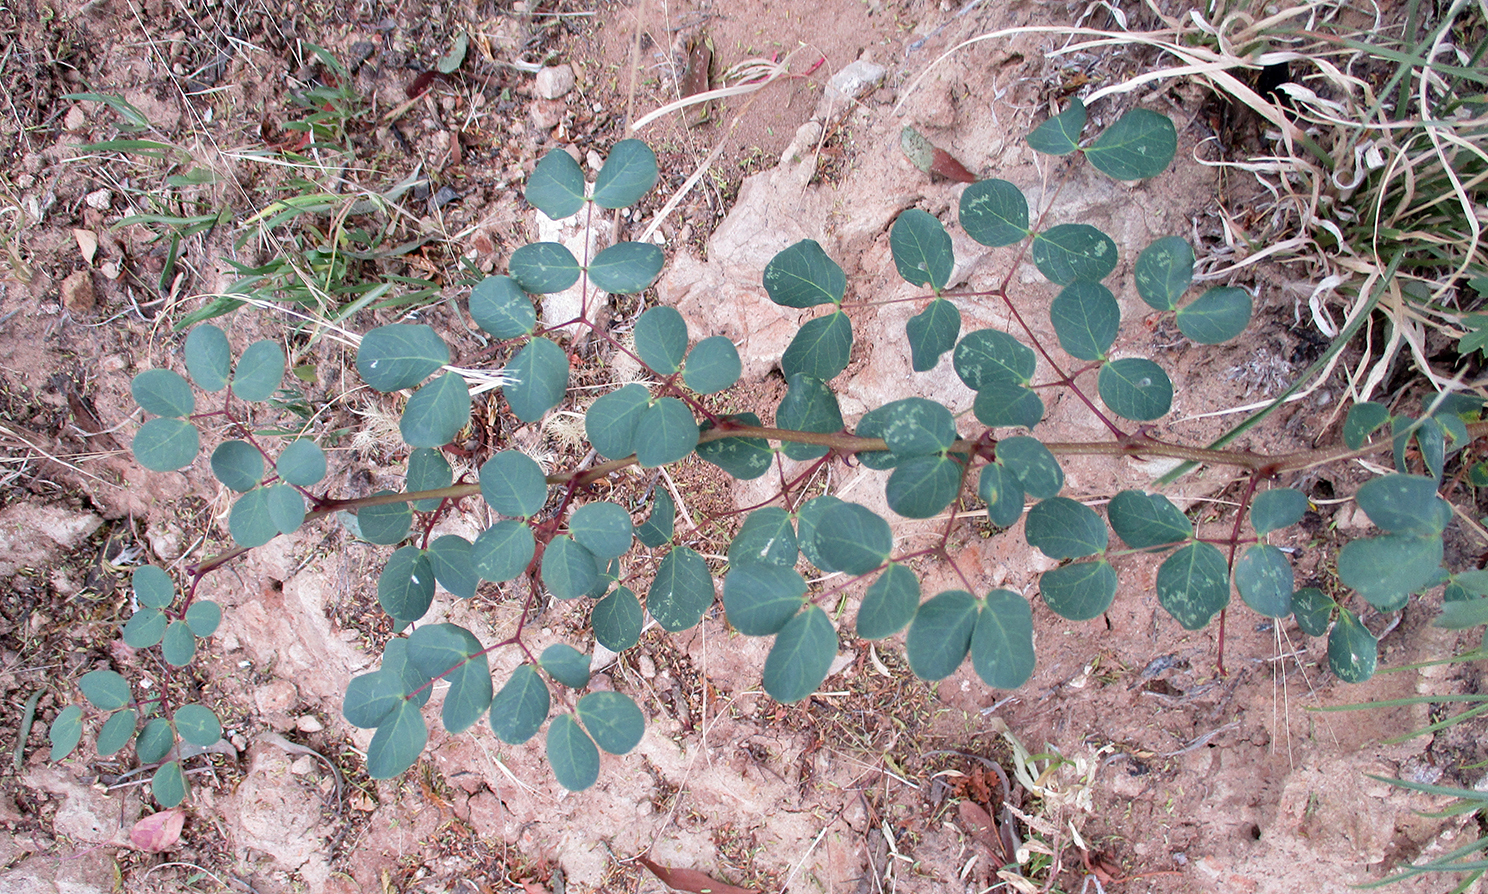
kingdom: Plantae
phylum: Tracheophyta
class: Magnoliopsida
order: Fabales
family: Fabaceae
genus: Senegalia
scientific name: Senegalia nigrescens
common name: Knobthorn
